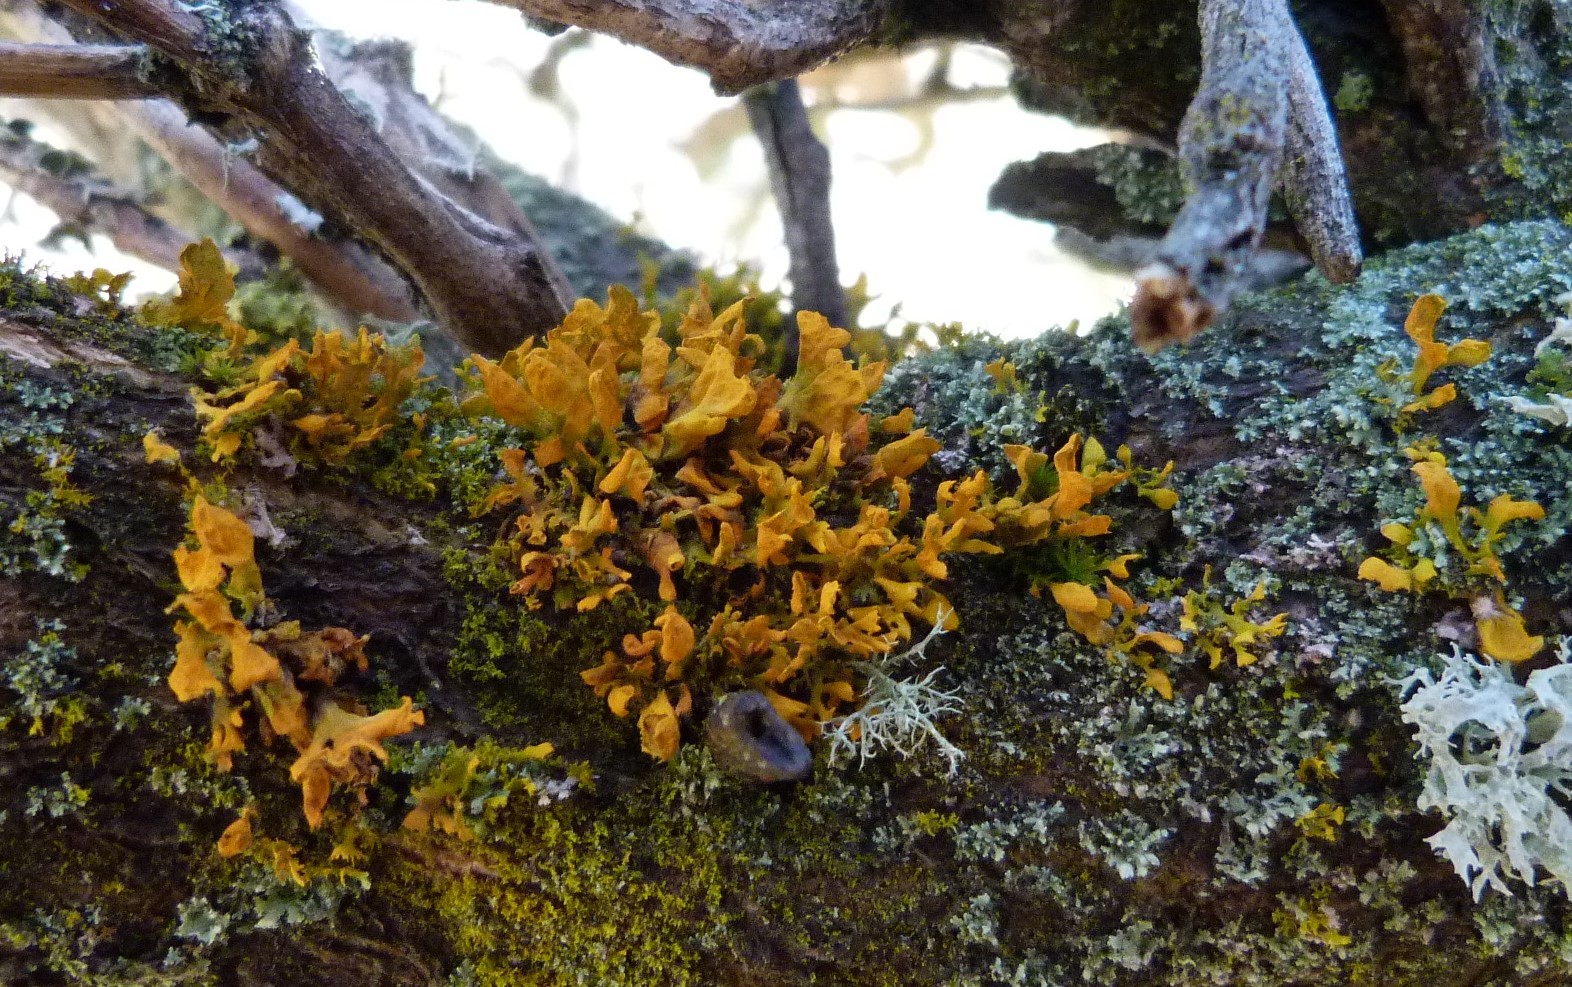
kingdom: Fungi
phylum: Ascomycota
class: Lecanoromycetes
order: Teloschistales
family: Teloschistaceae
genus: Teloschistes
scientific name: Teloschistes velifer
